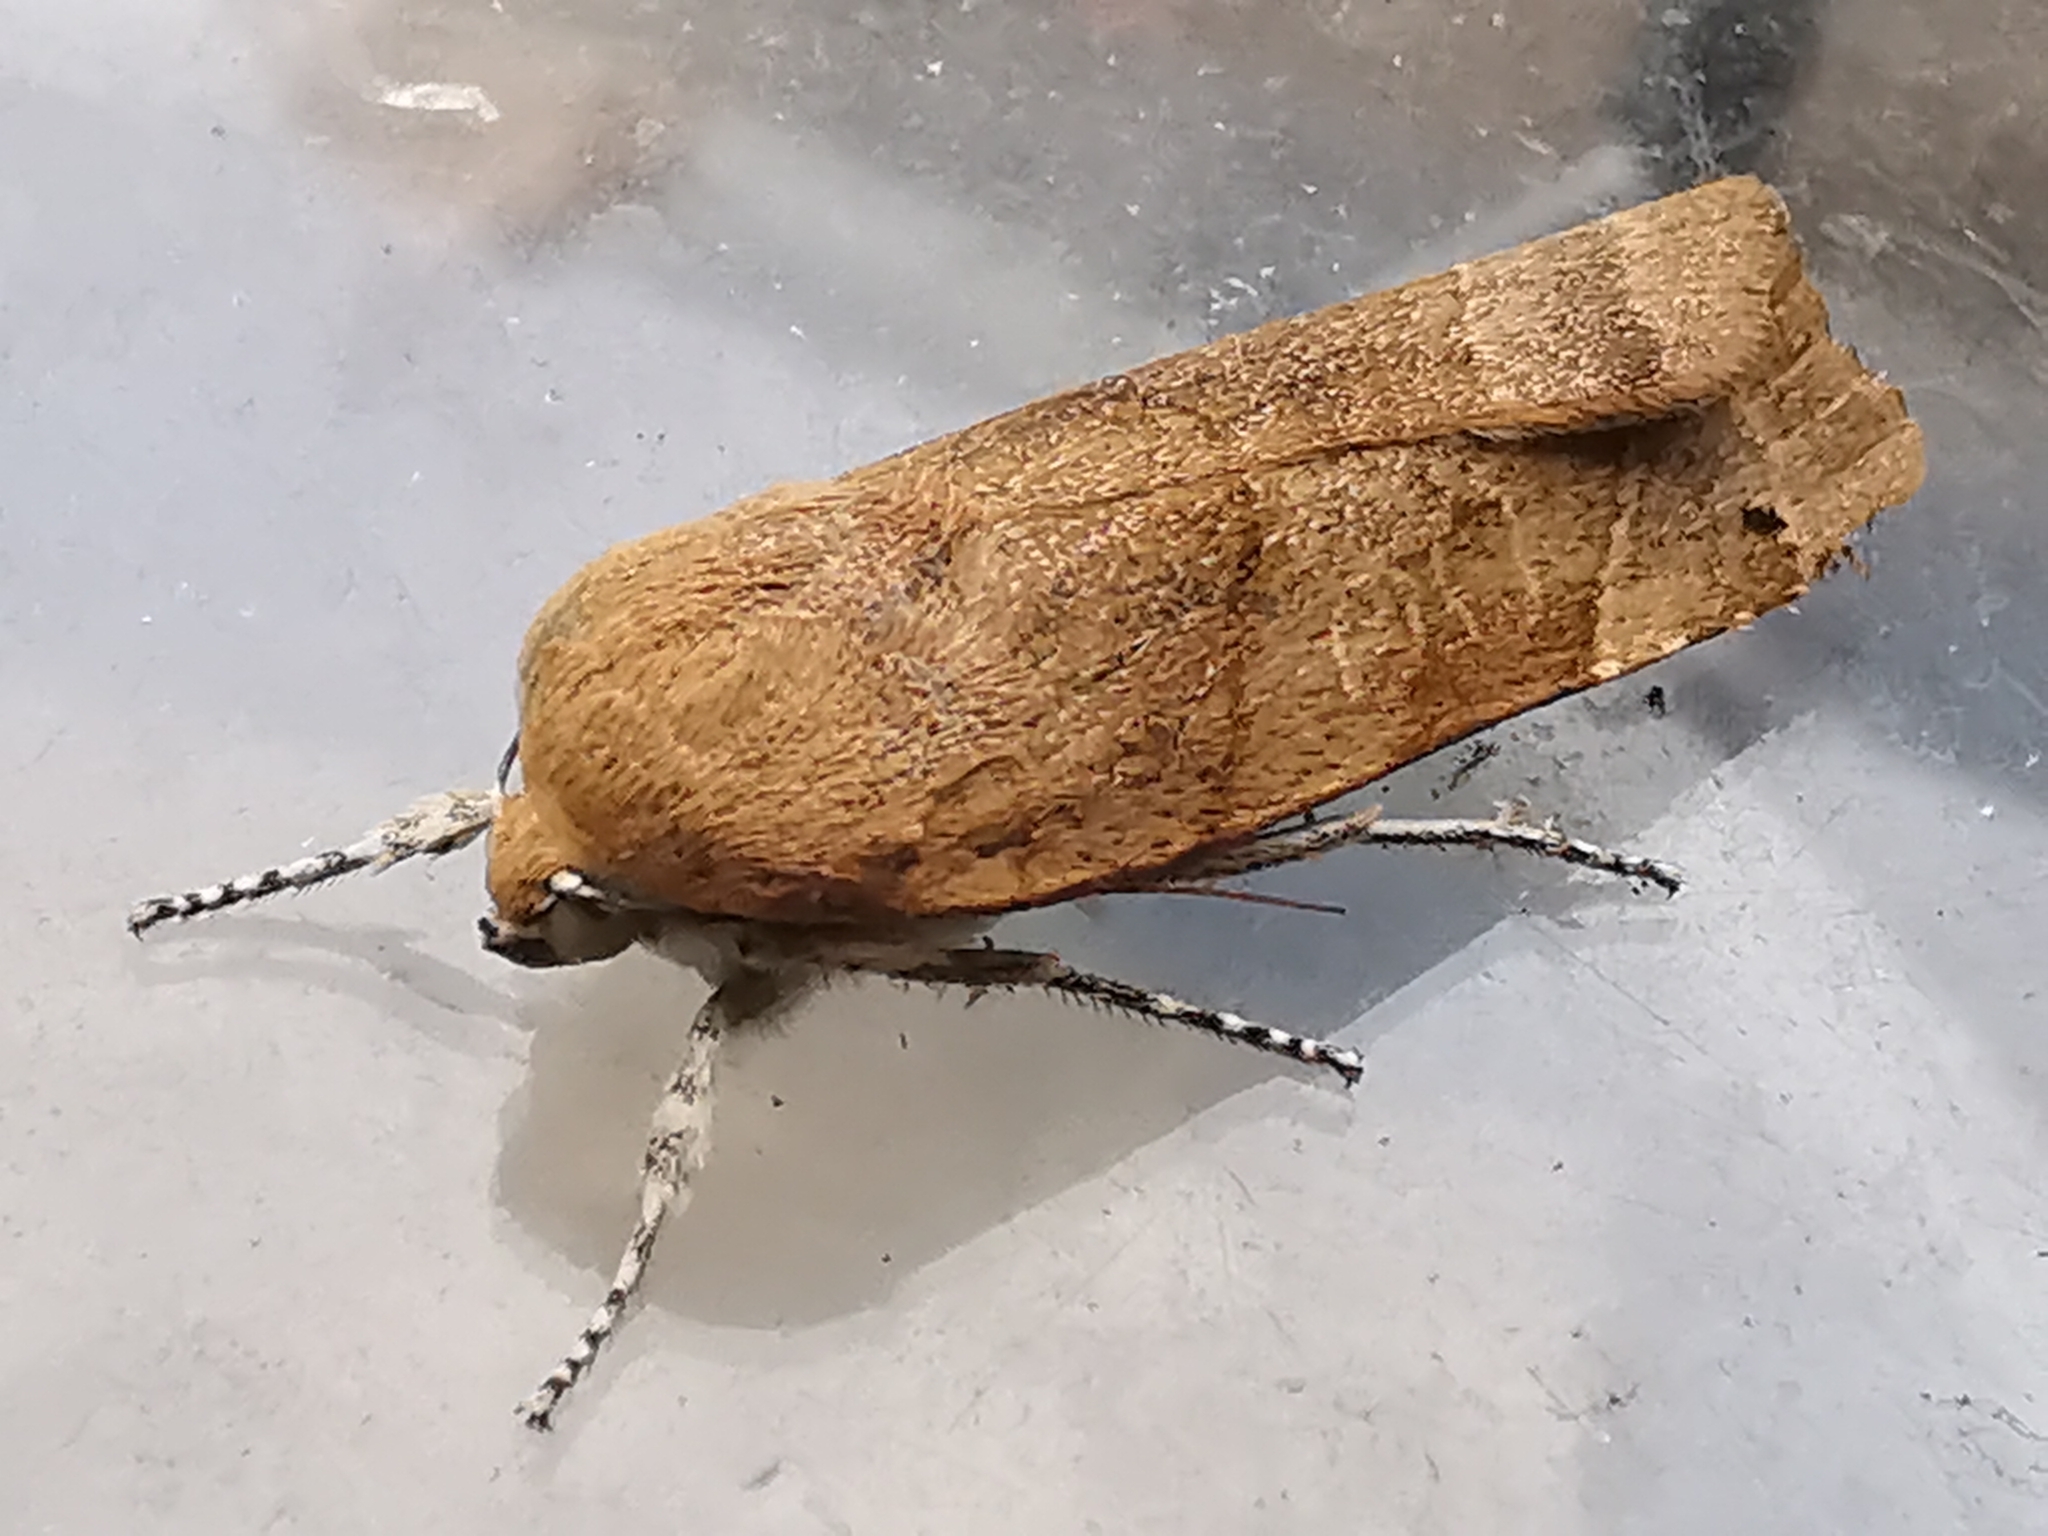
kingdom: Animalia
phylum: Arthropoda
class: Insecta
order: Lepidoptera
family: Noctuidae
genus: Noctua
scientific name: Noctua fimbriata
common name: Broad-bordered yellow underwing
